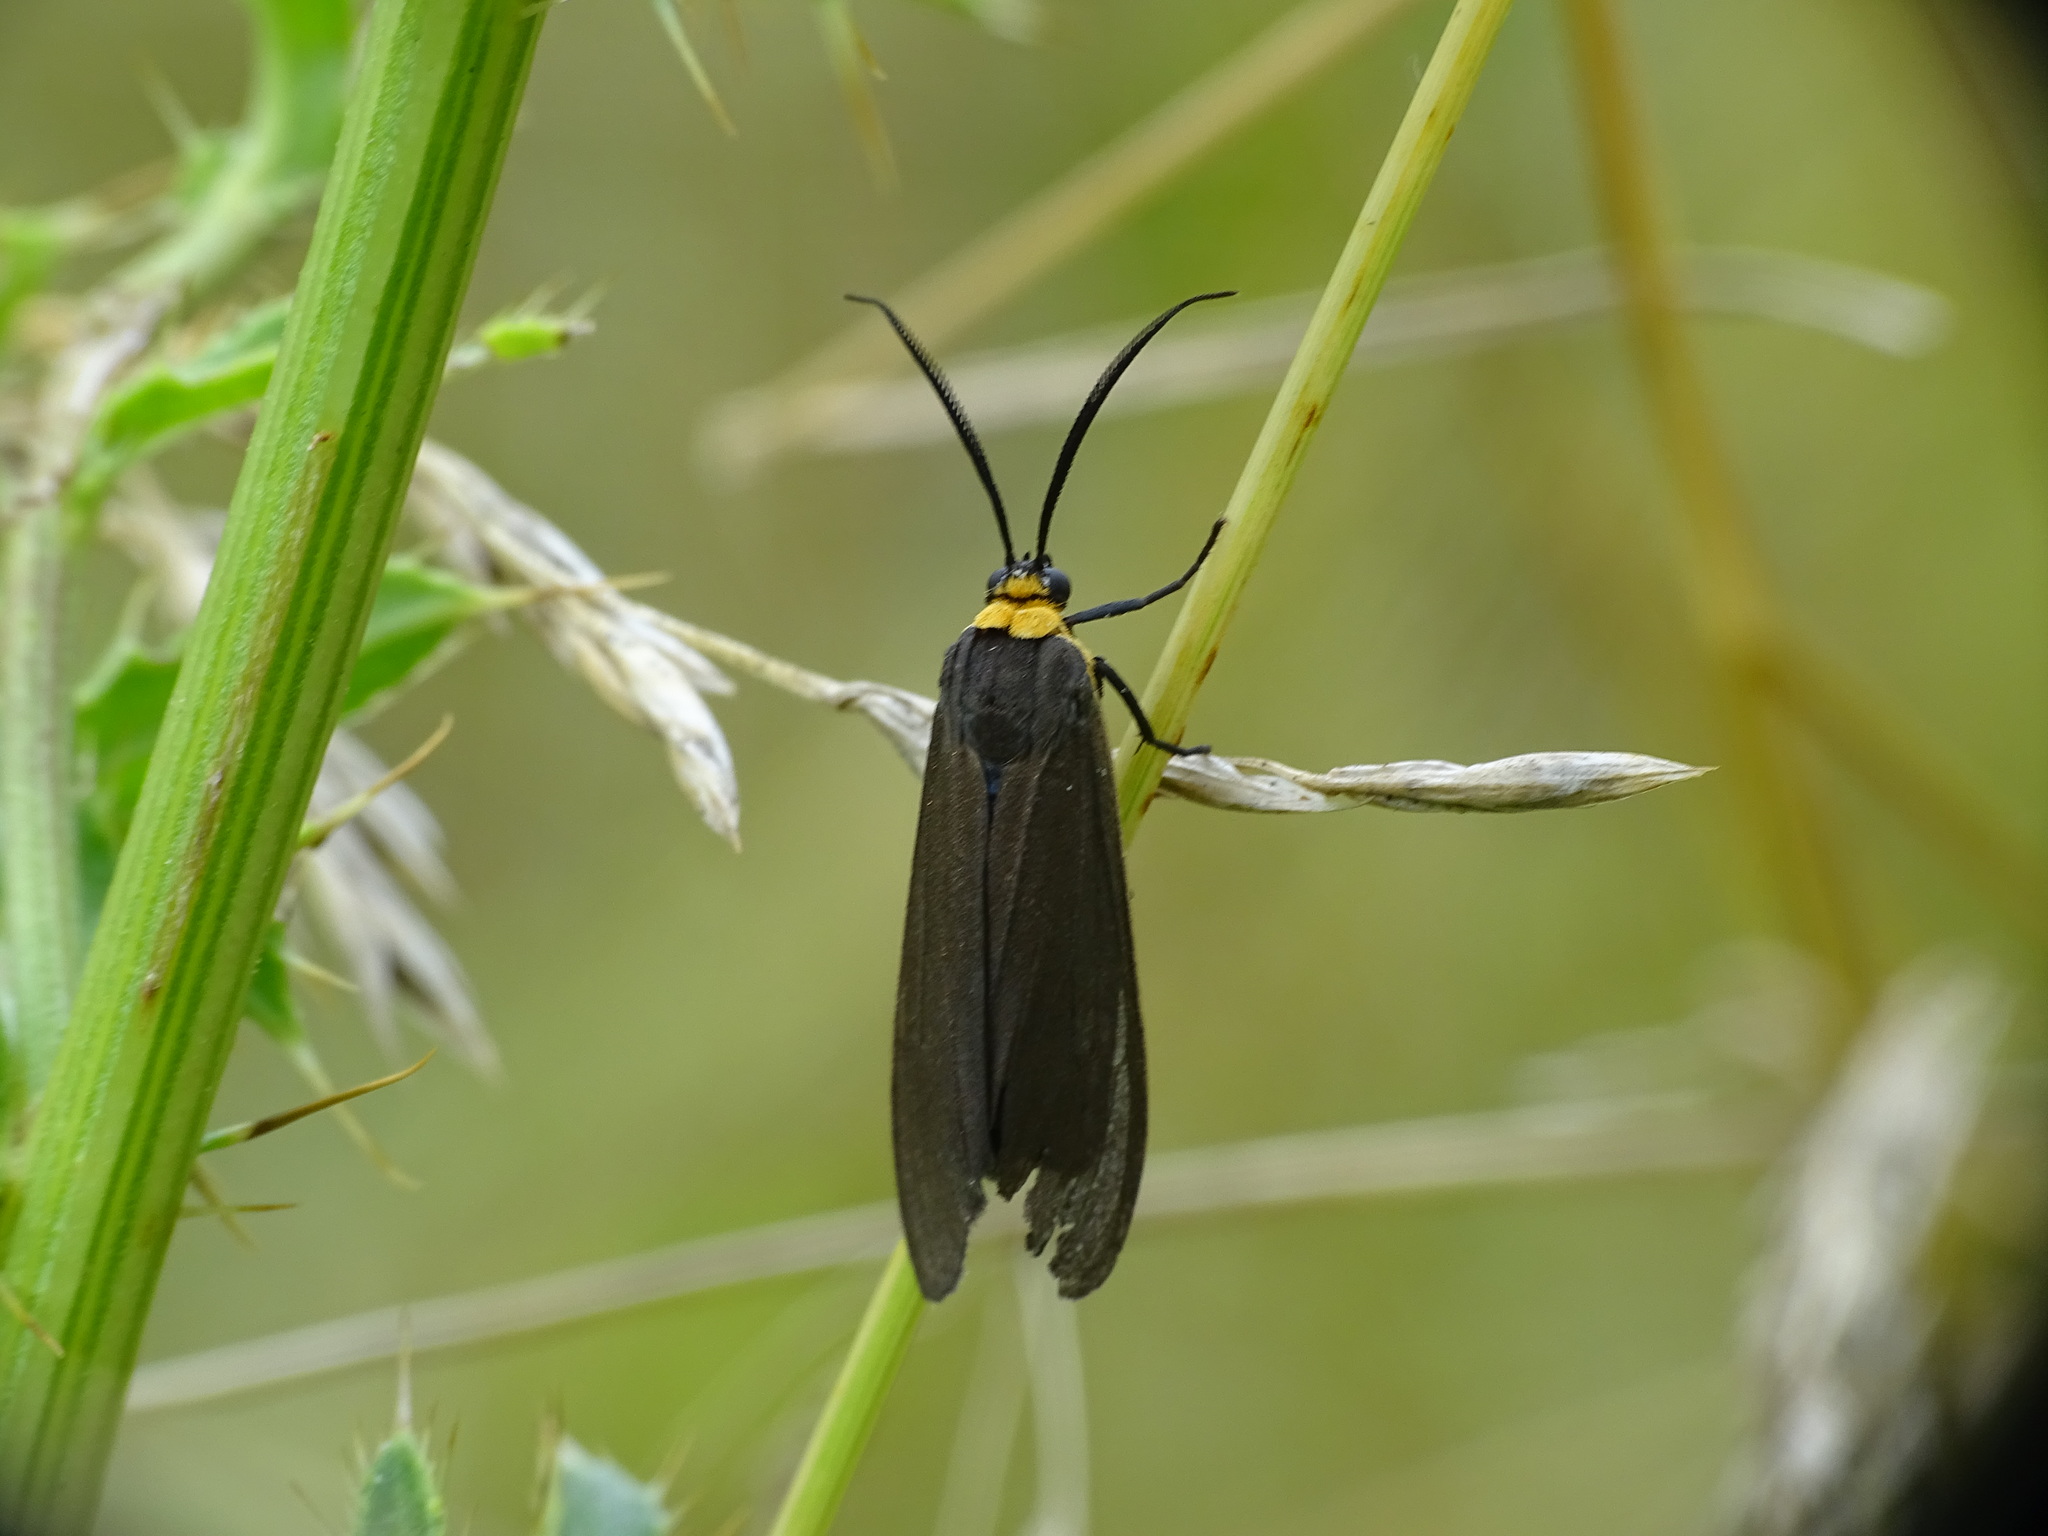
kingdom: Animalia
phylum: Arthropoda
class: Insecta
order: Lepidoptera
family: Erebidae
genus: Cisseps
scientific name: Cisseps fulvicollis
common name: Yellow-collared scape moth
